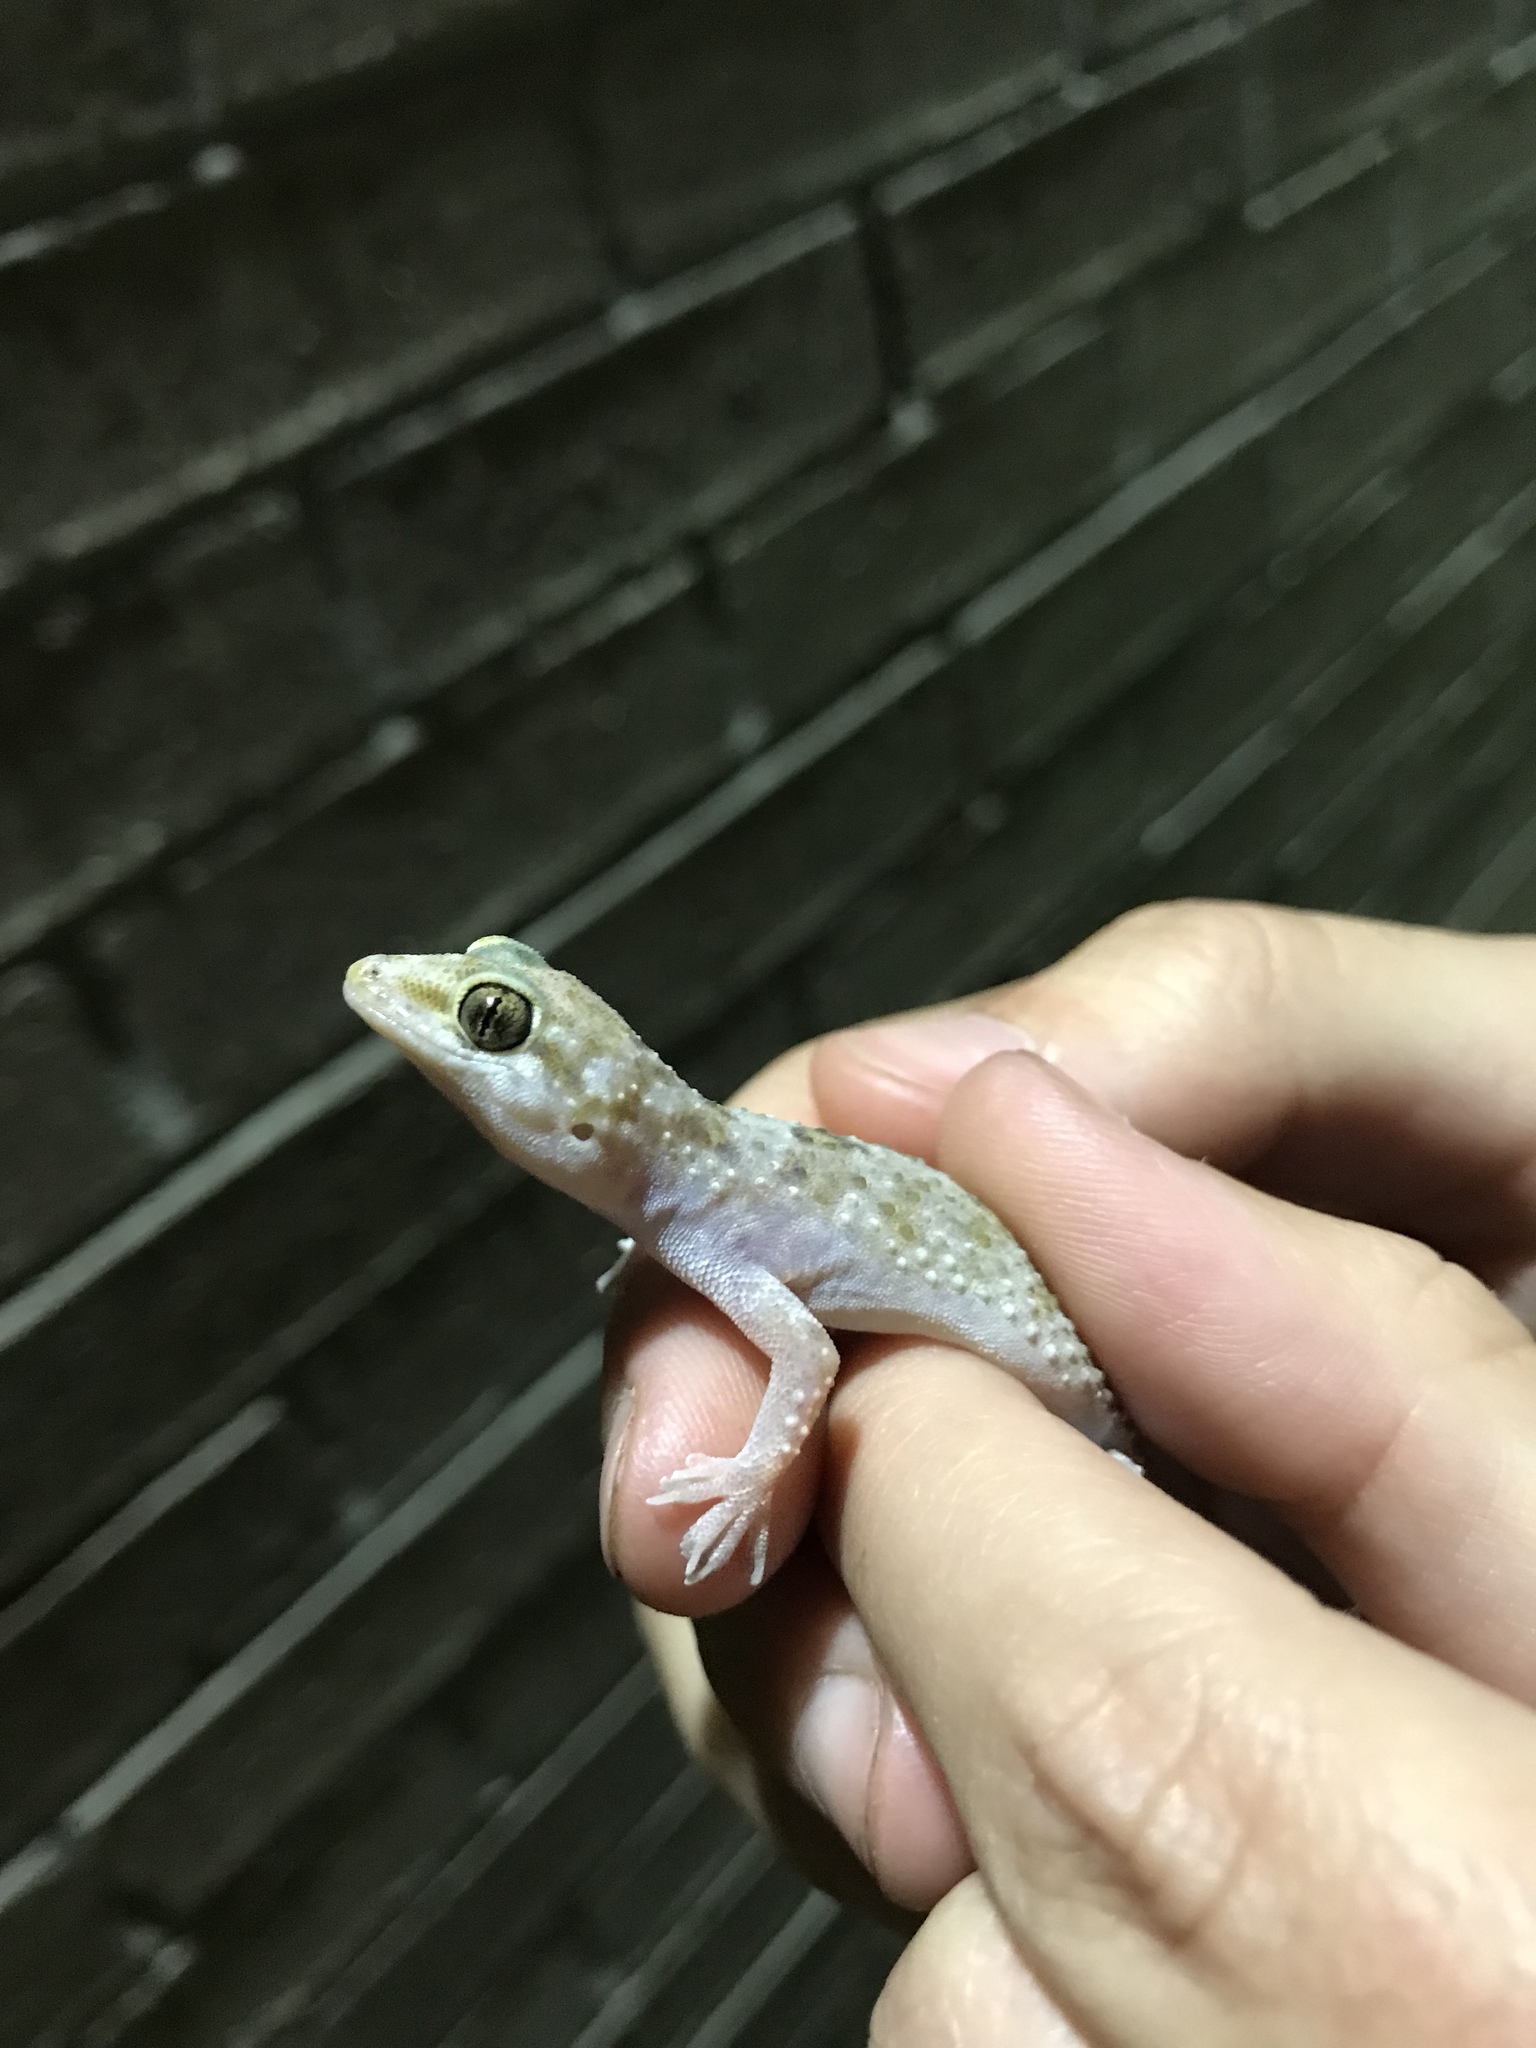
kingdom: Animalia
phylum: Chordata
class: Squamata
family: Gekkonidae
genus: Hemidactylus
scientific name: Hemidactylus turcicus
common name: Turkish gecko
